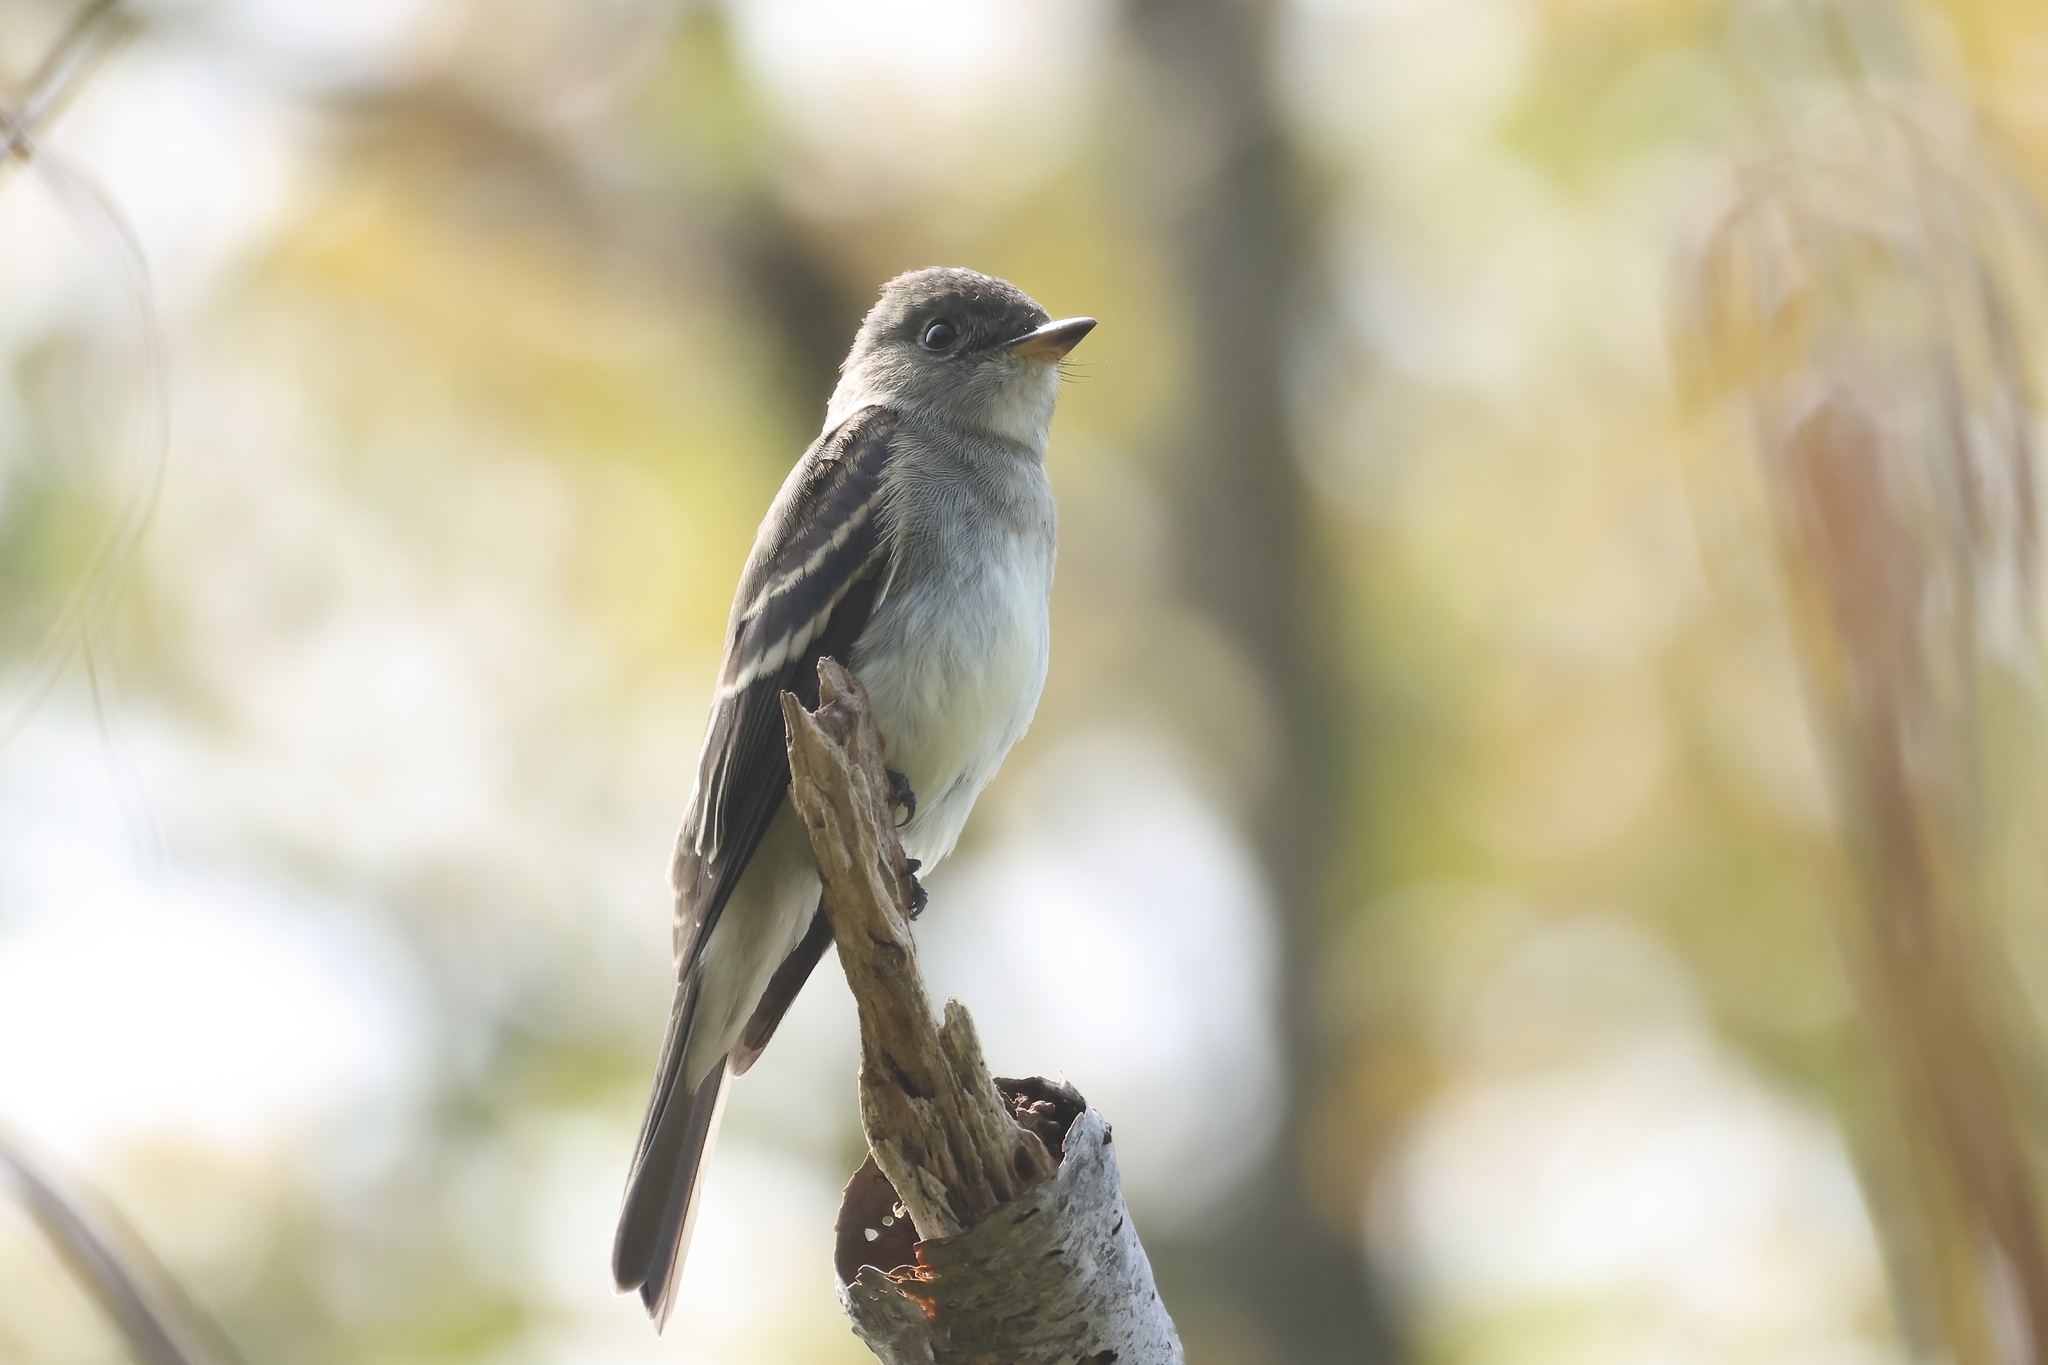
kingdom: Animalia
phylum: Chordata
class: Aves
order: Passeriformes
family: Tyrannidae
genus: Contopus
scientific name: Contopus virens
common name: Eastern wood-pewee
